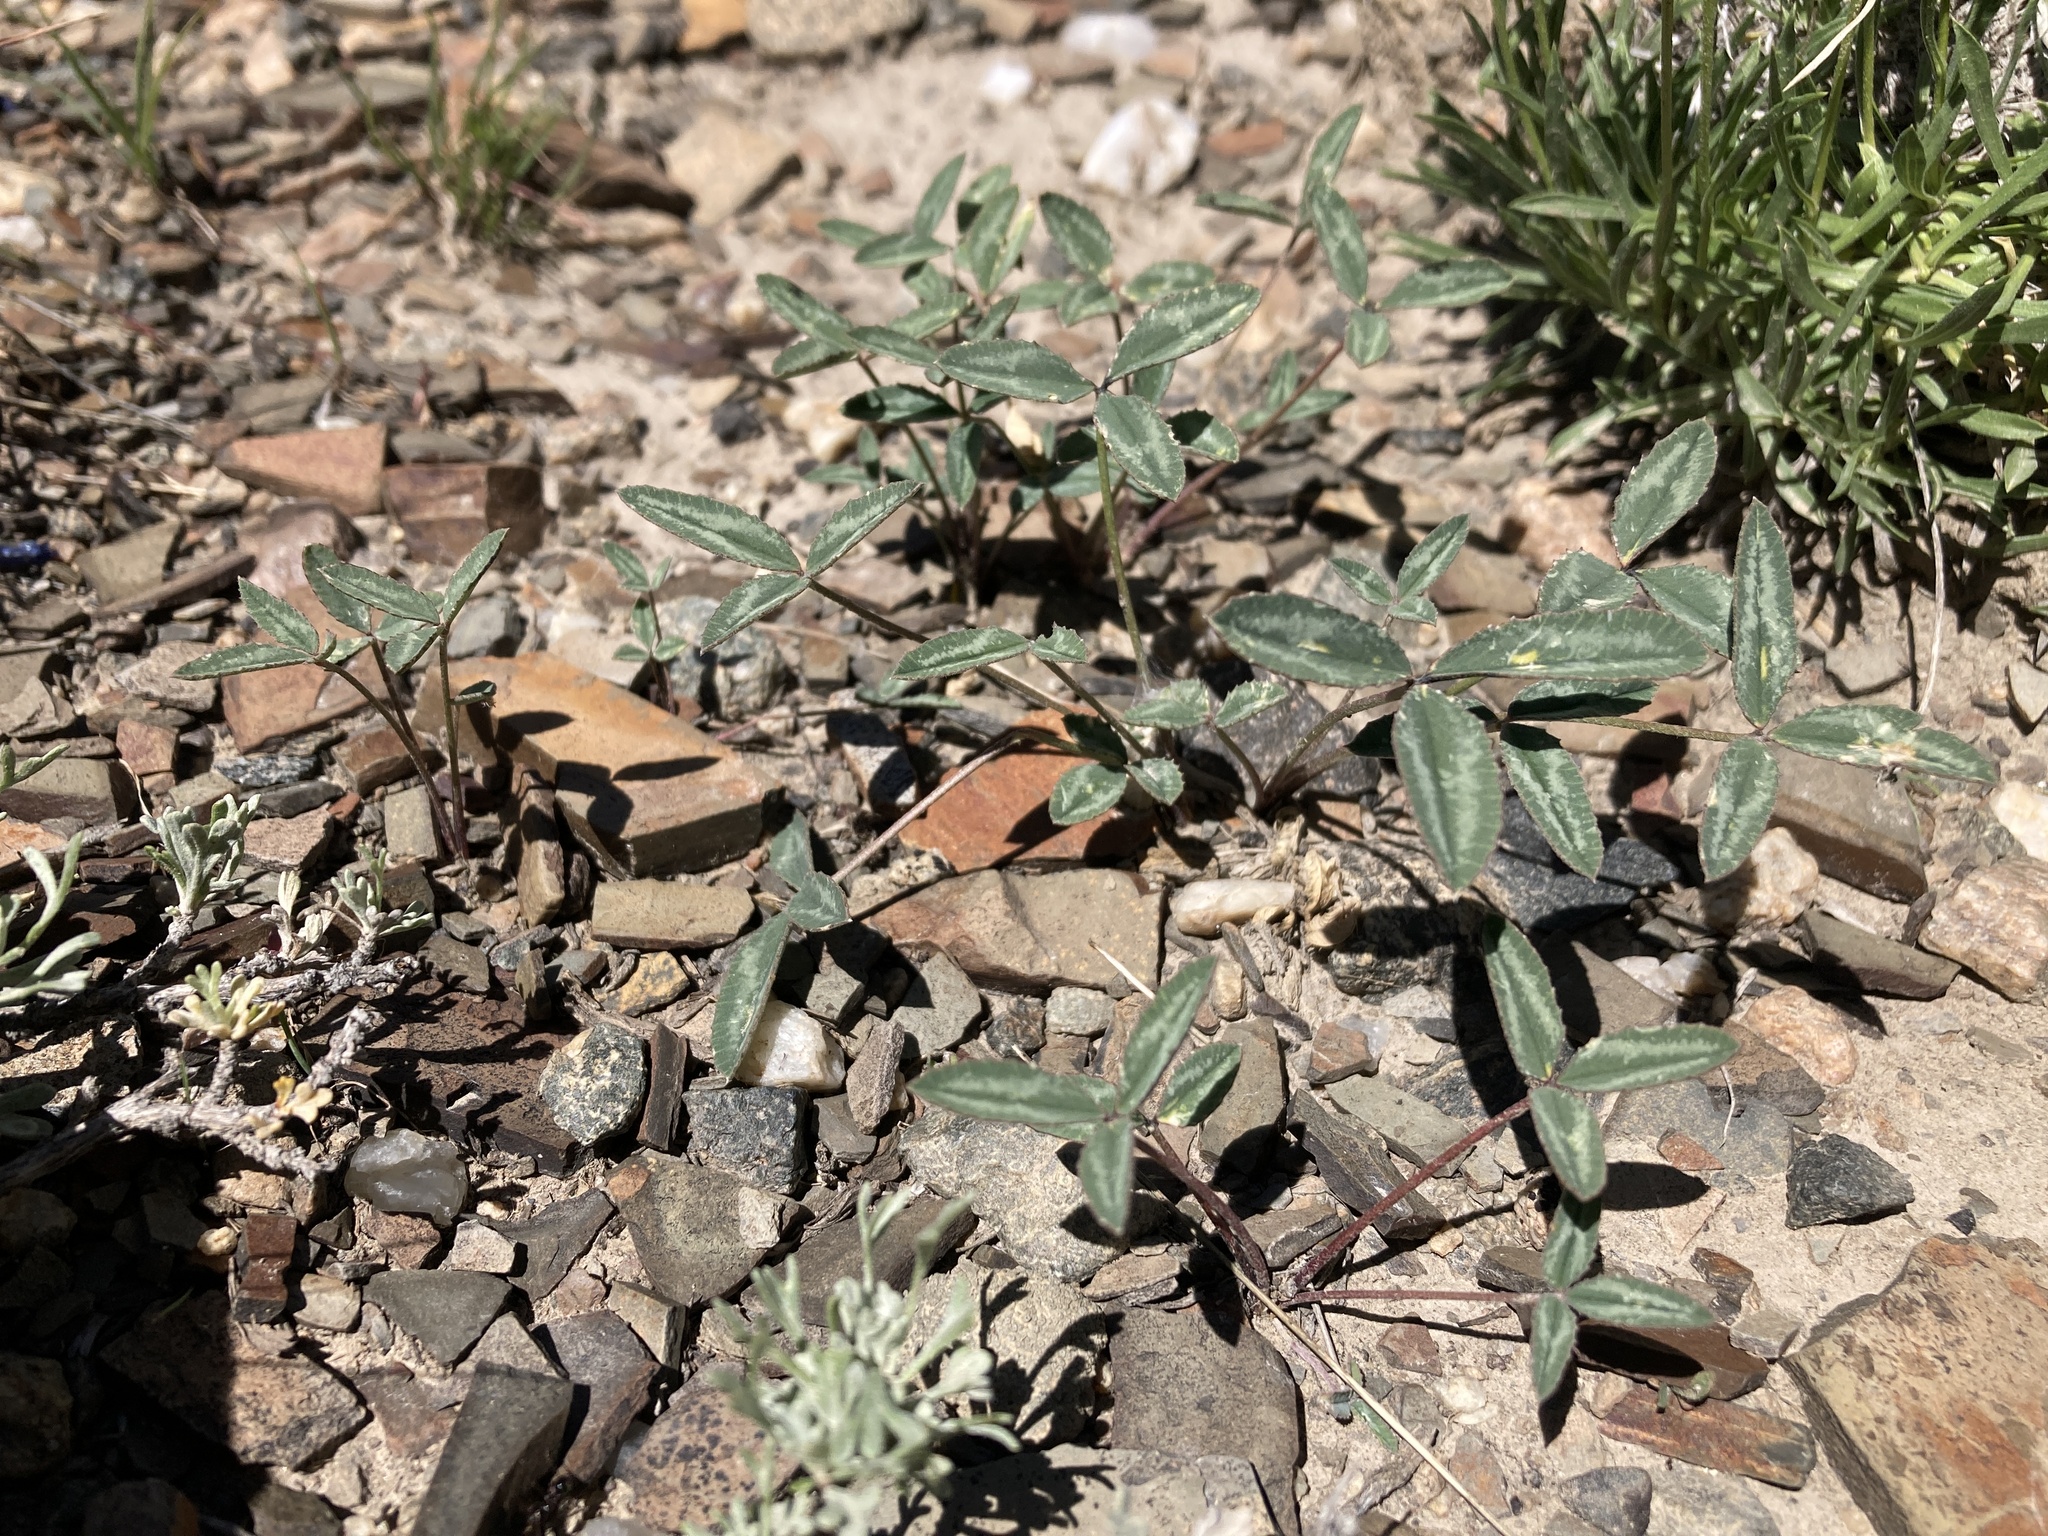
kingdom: Plantae
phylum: Tracheophyta
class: Magnoliopsida
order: Fabales
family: Fabaceae
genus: Trifolium
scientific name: Trifolium gymnocarpon
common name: Tufted clover
